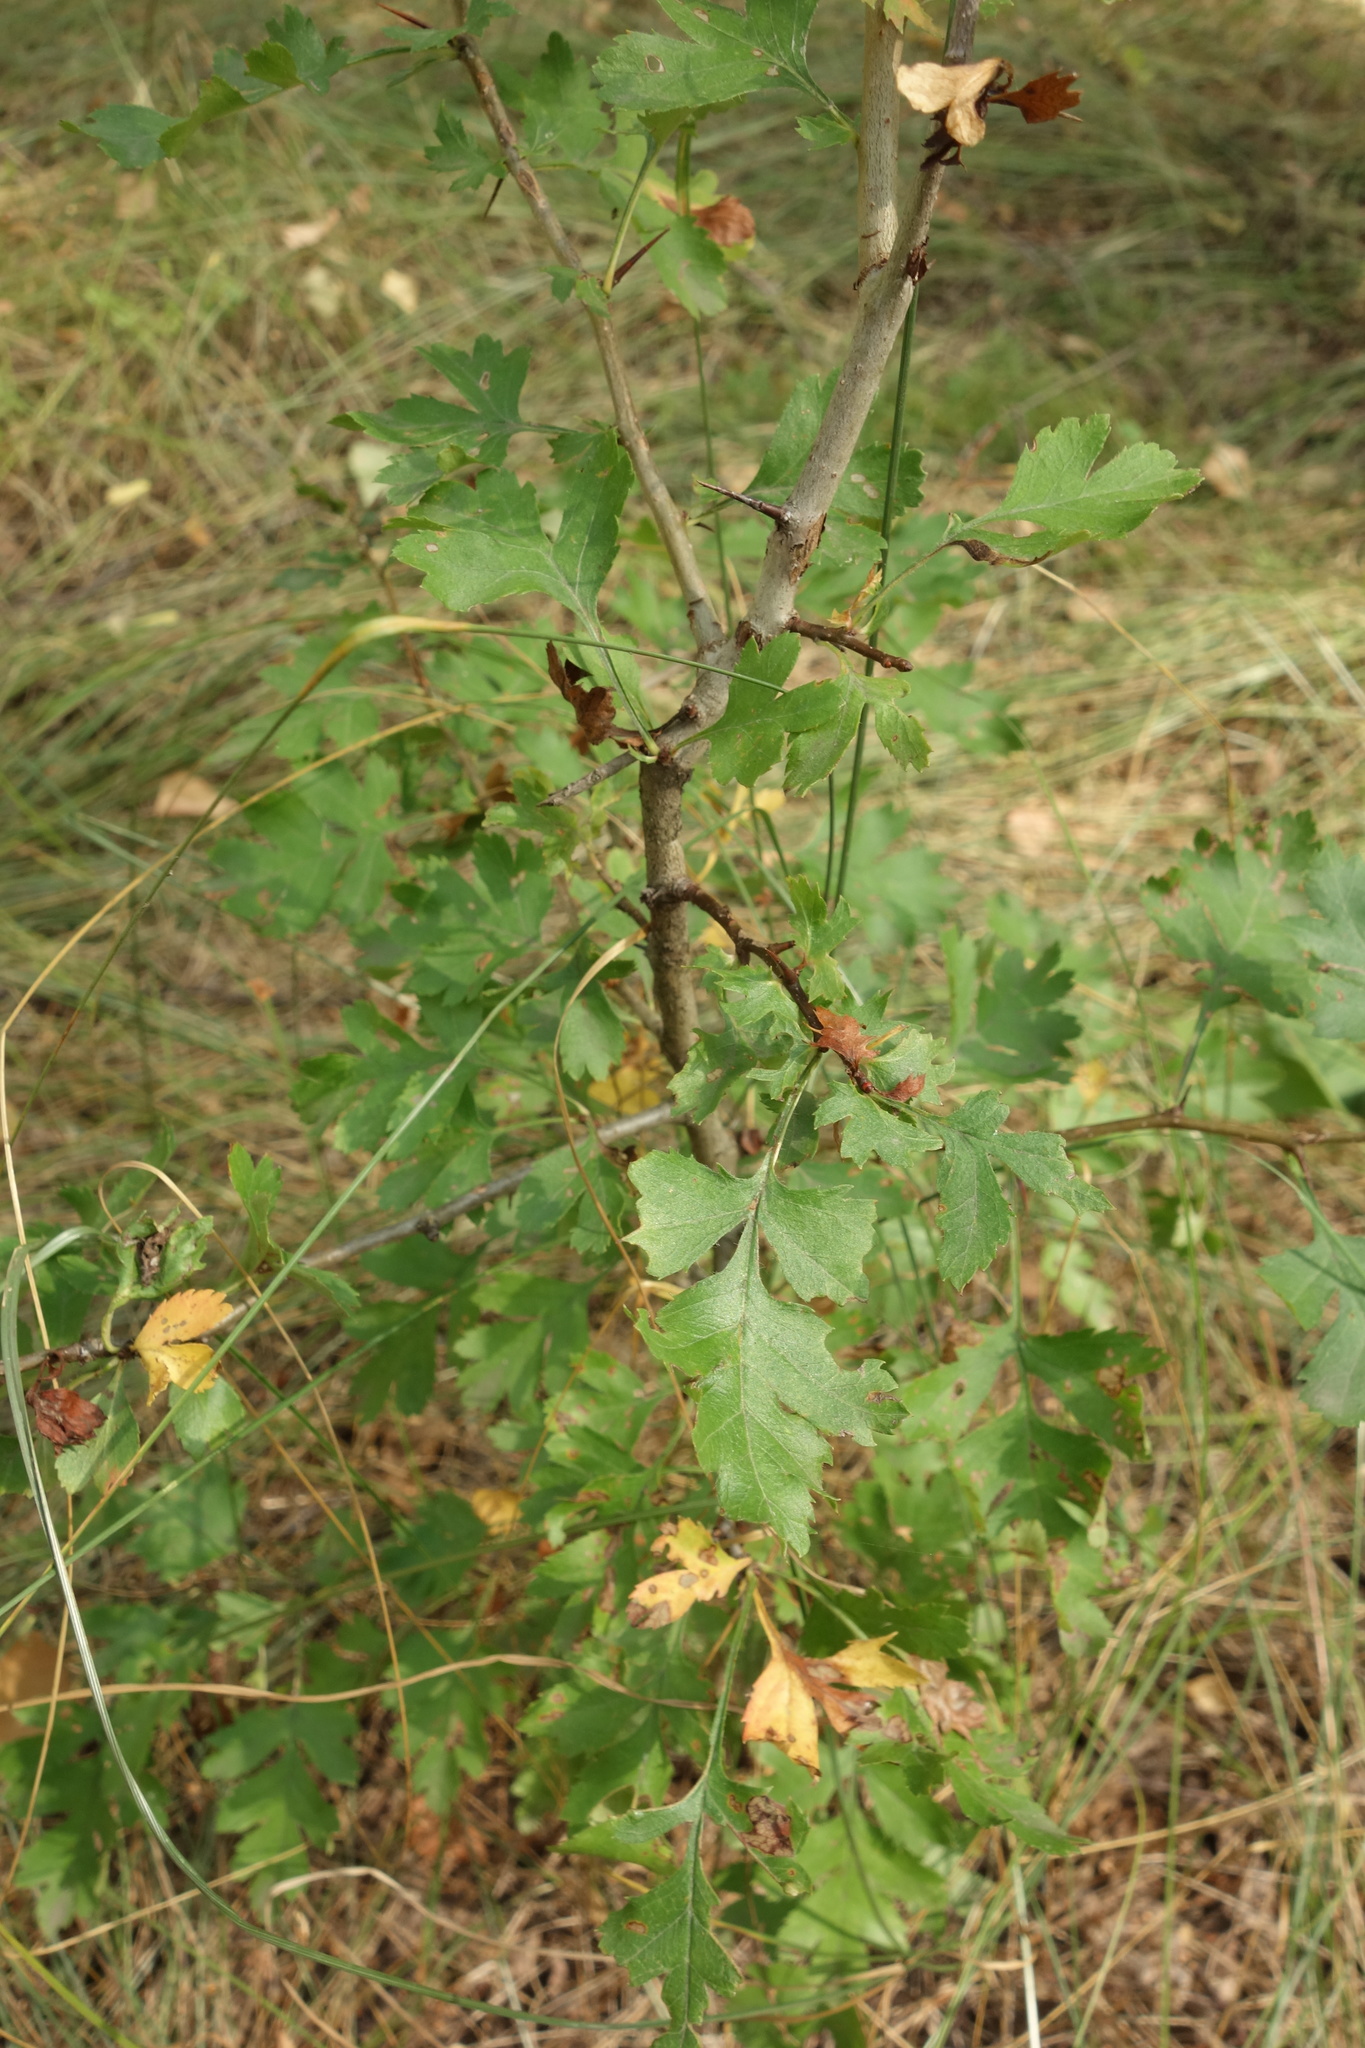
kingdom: Plantae
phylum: Tracheophyta
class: Magnoliopsida
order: Rosales
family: Rosaceae
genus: Crataegus
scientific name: Crataegus monogyna
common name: Hawthorn
